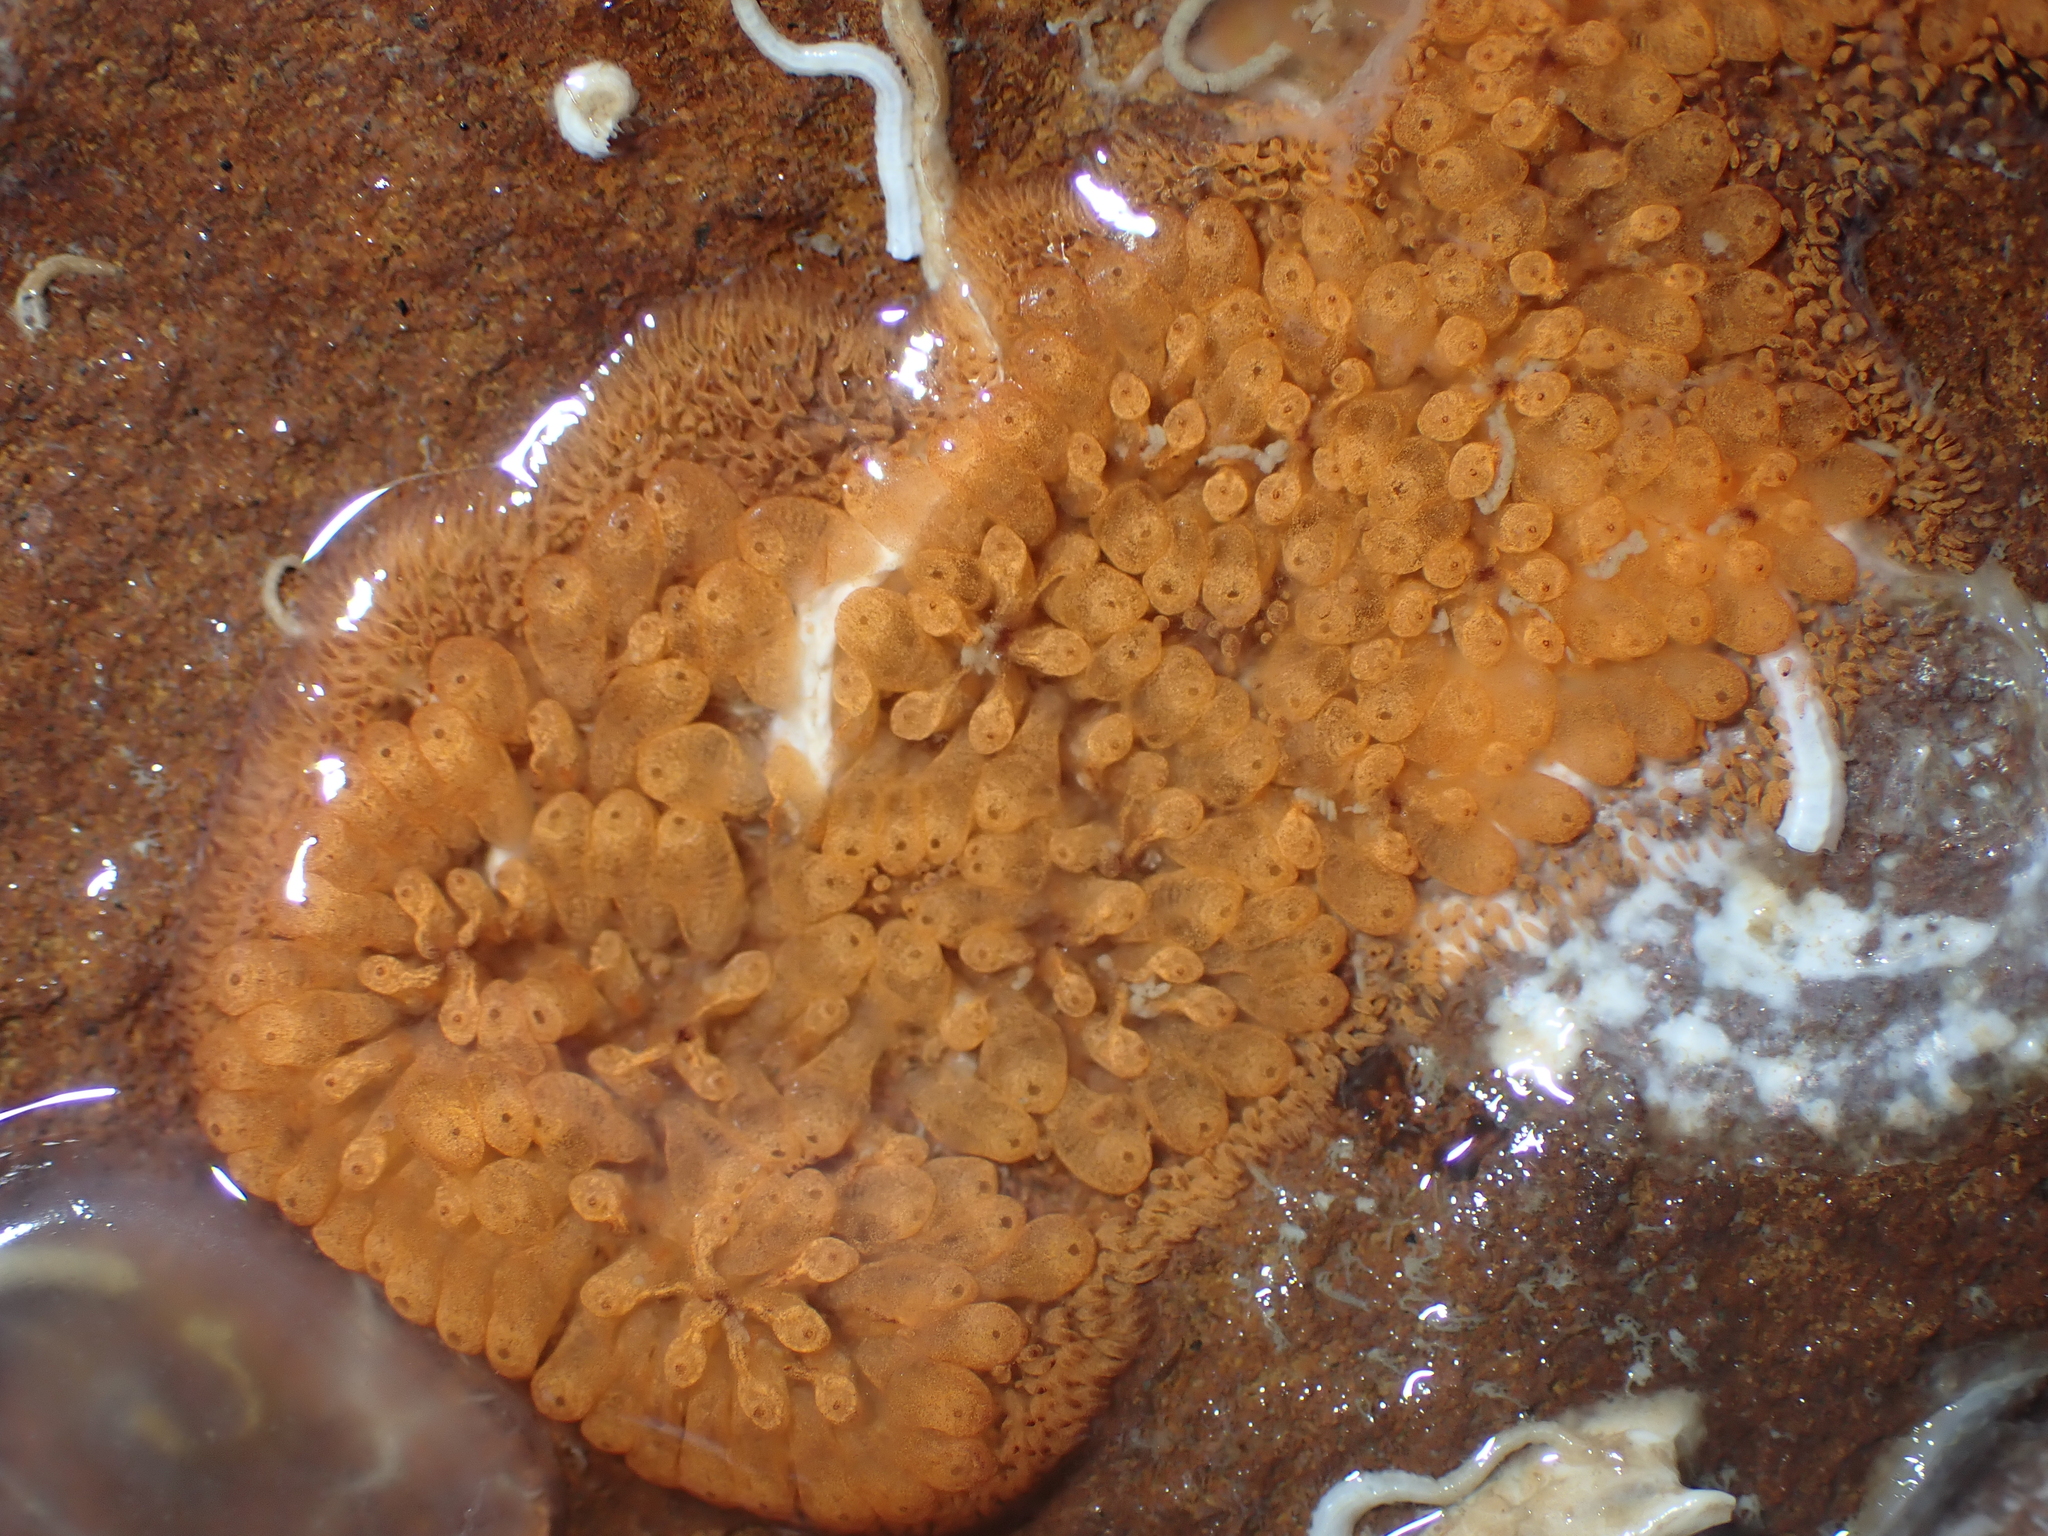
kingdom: Animalia
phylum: Chordata
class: Ascidiacea
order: Stolidobranchia
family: Styelidae
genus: Botrylloides
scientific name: Botrylloides violaceus
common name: Colonial sea squirt
